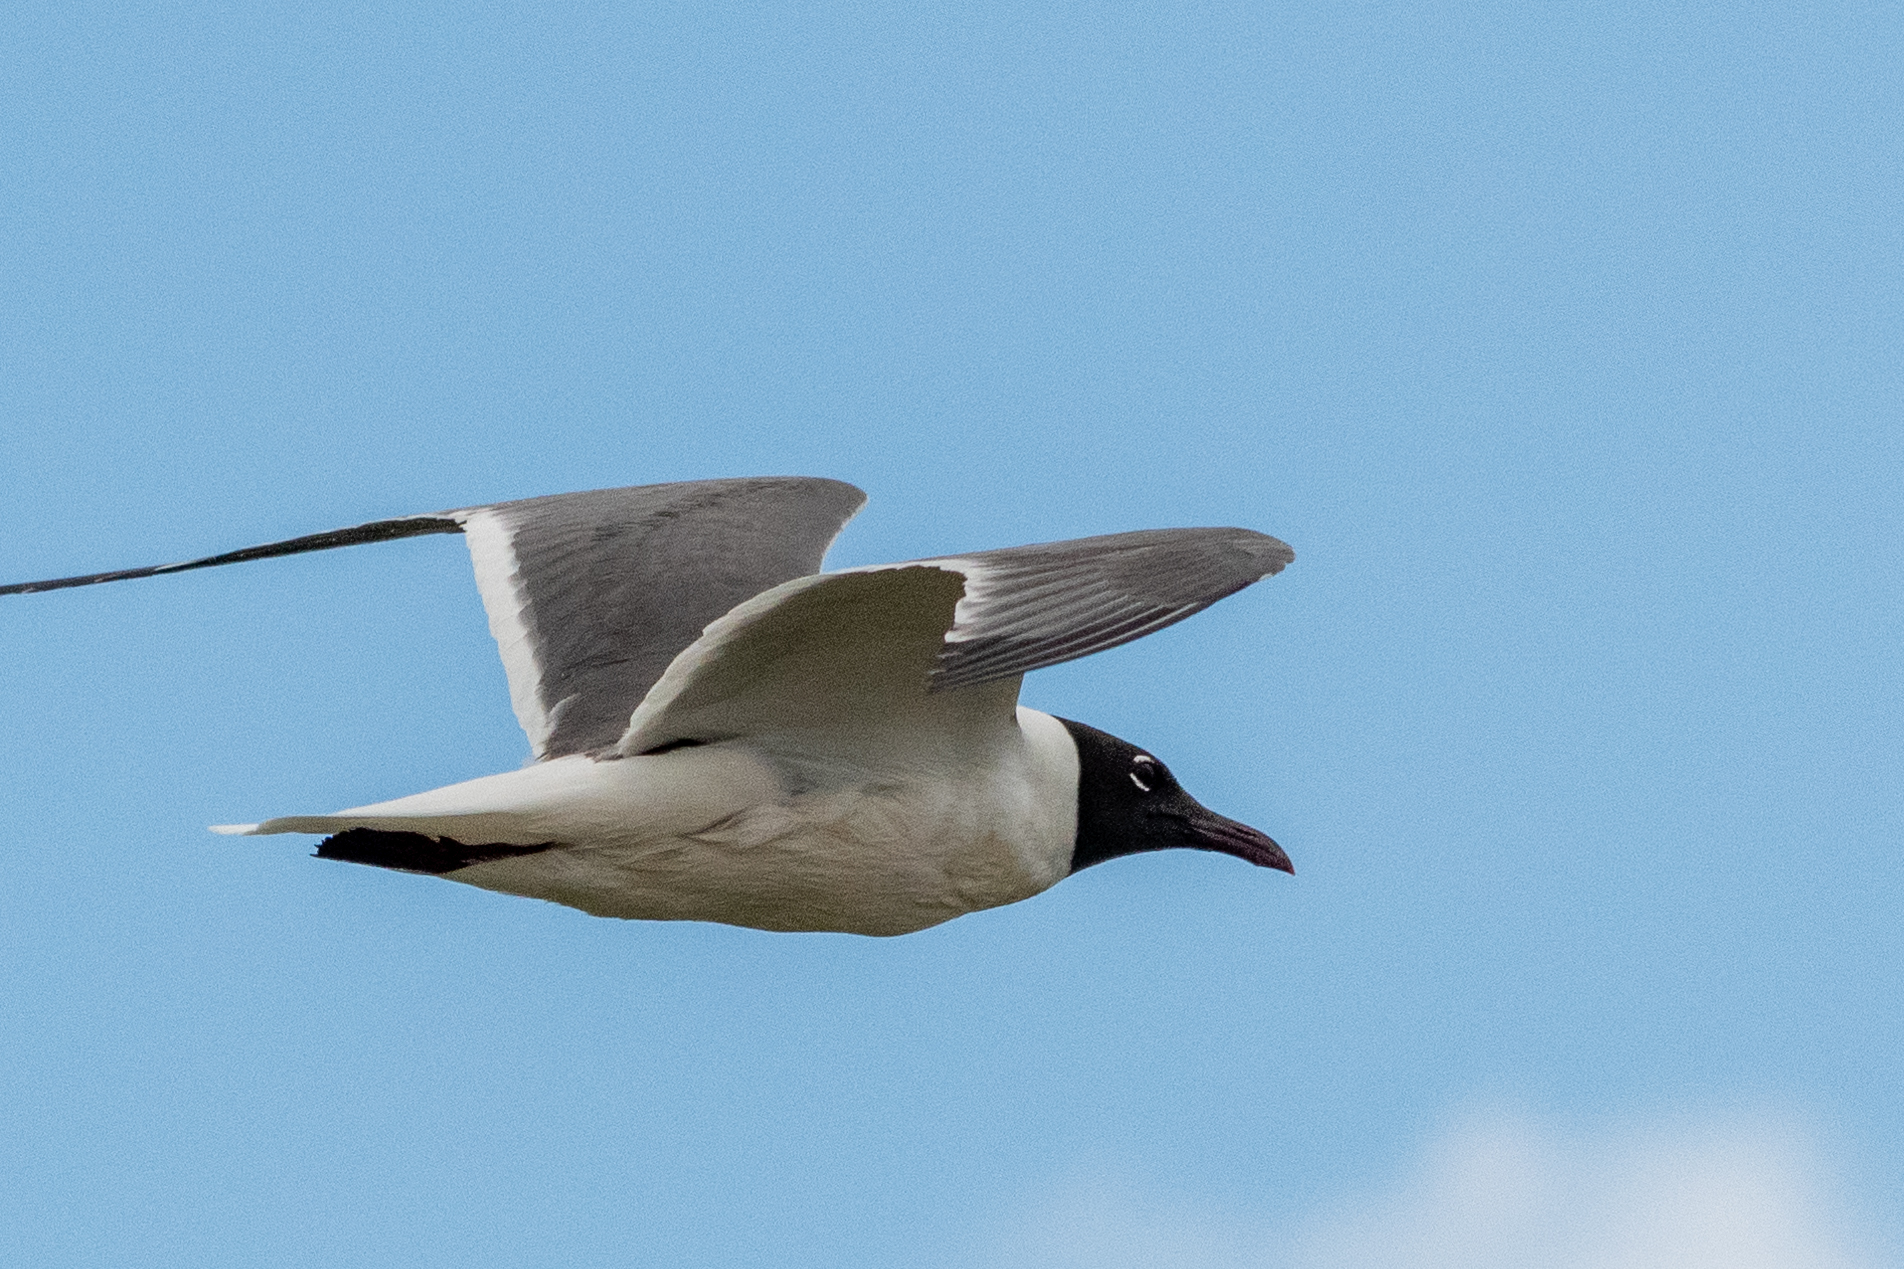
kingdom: Animalia
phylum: Chordata
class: Aves
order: Charadriiformes
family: Laridae
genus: Leucophaeus
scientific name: Leucophaeus atricilla
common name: Laughing gull
